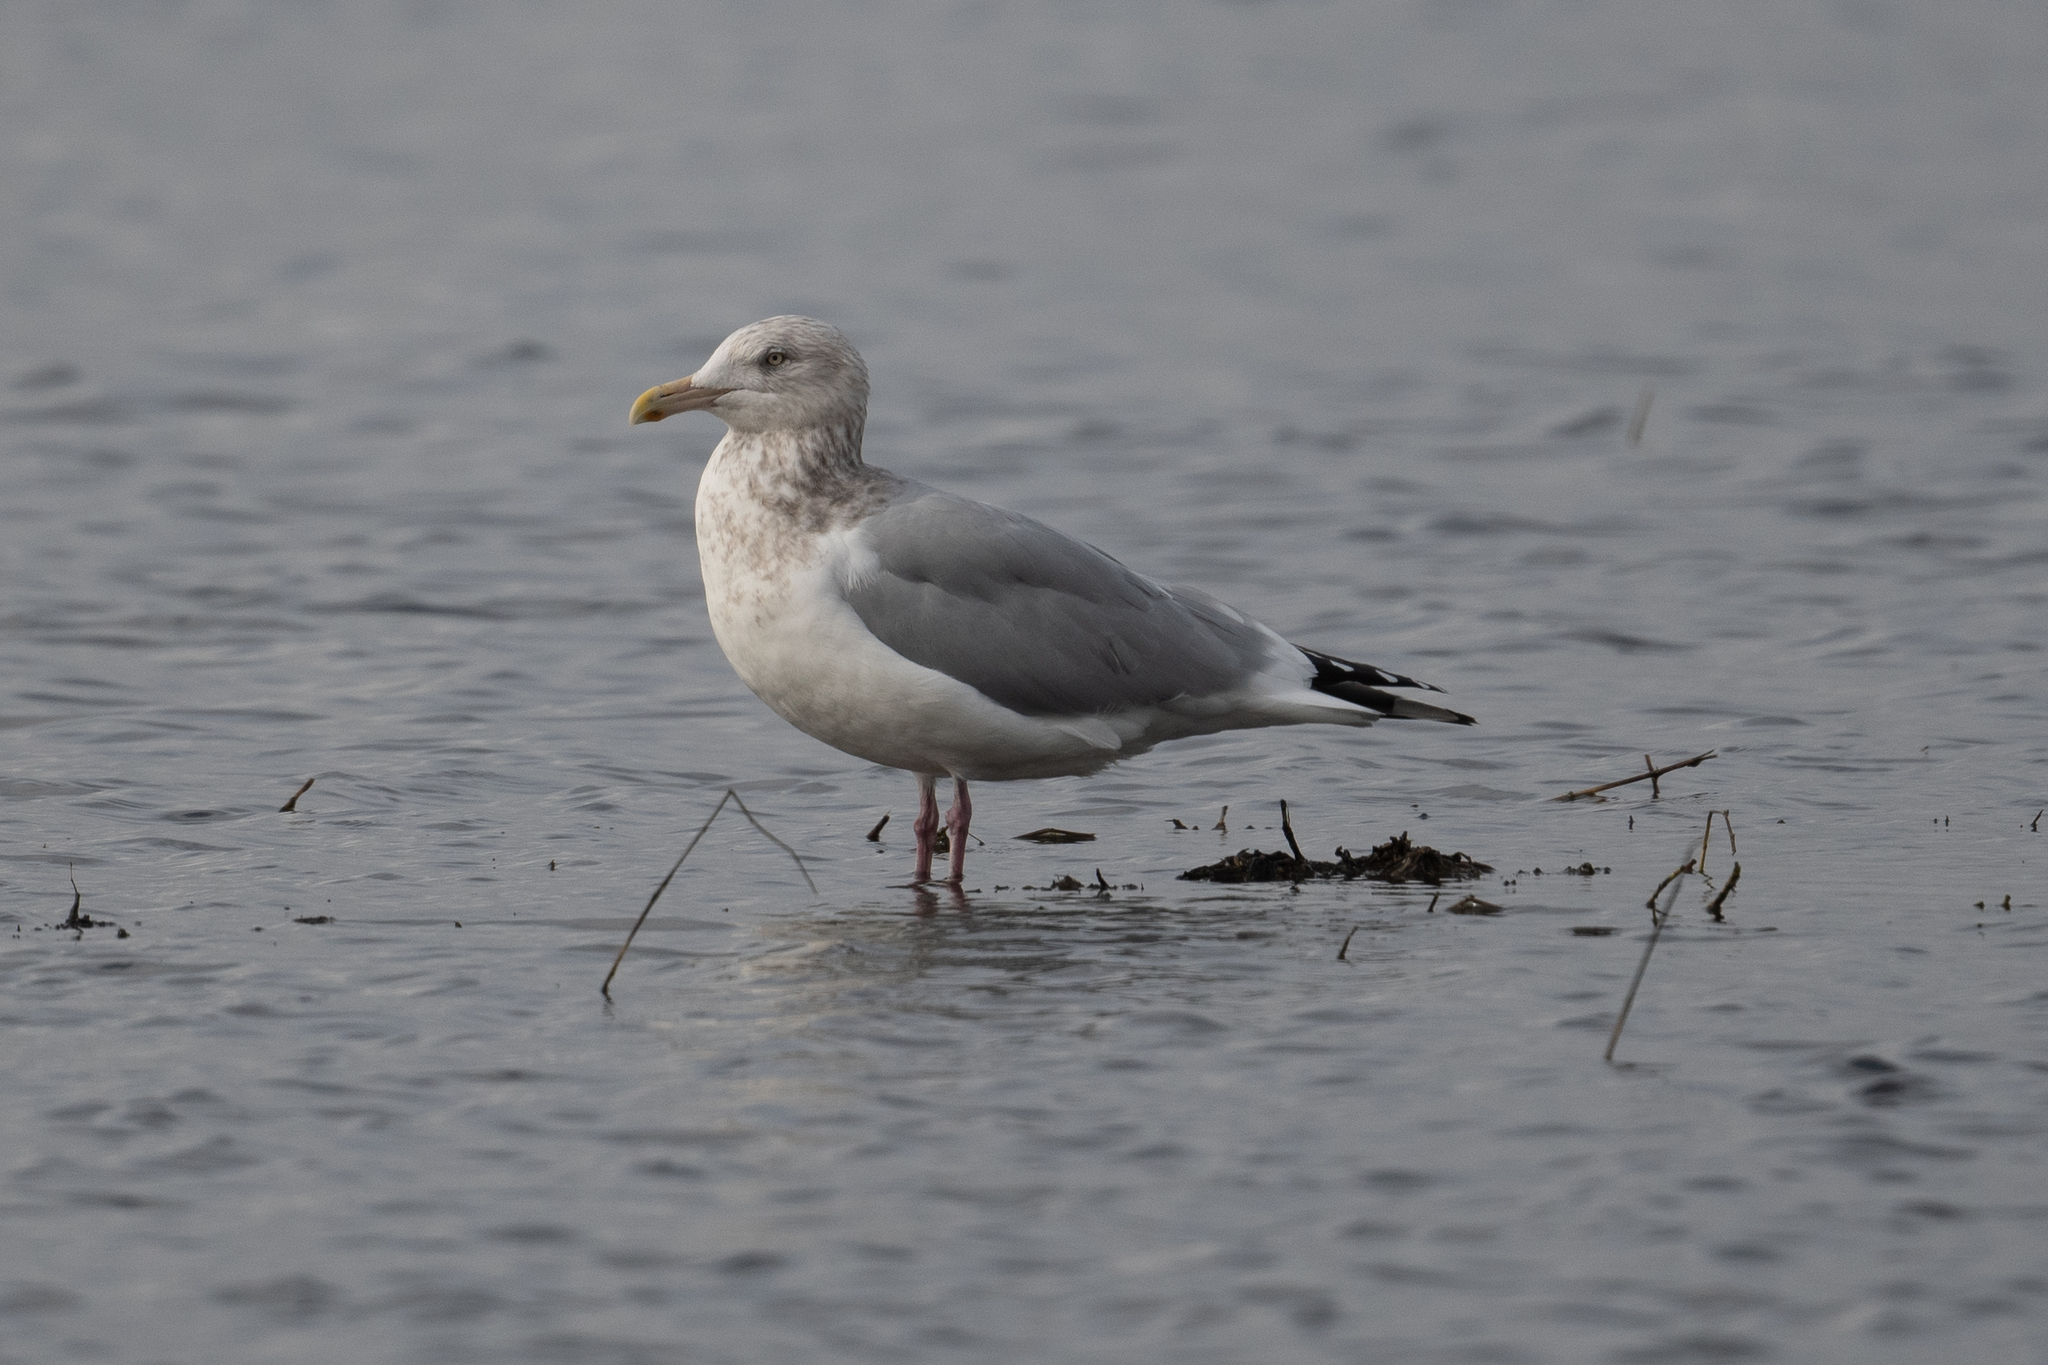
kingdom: Animalia
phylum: Chordata
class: Aves
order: Charadriiformes
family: Laridae
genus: Larus
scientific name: Larus argentatus
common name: Herring gull
